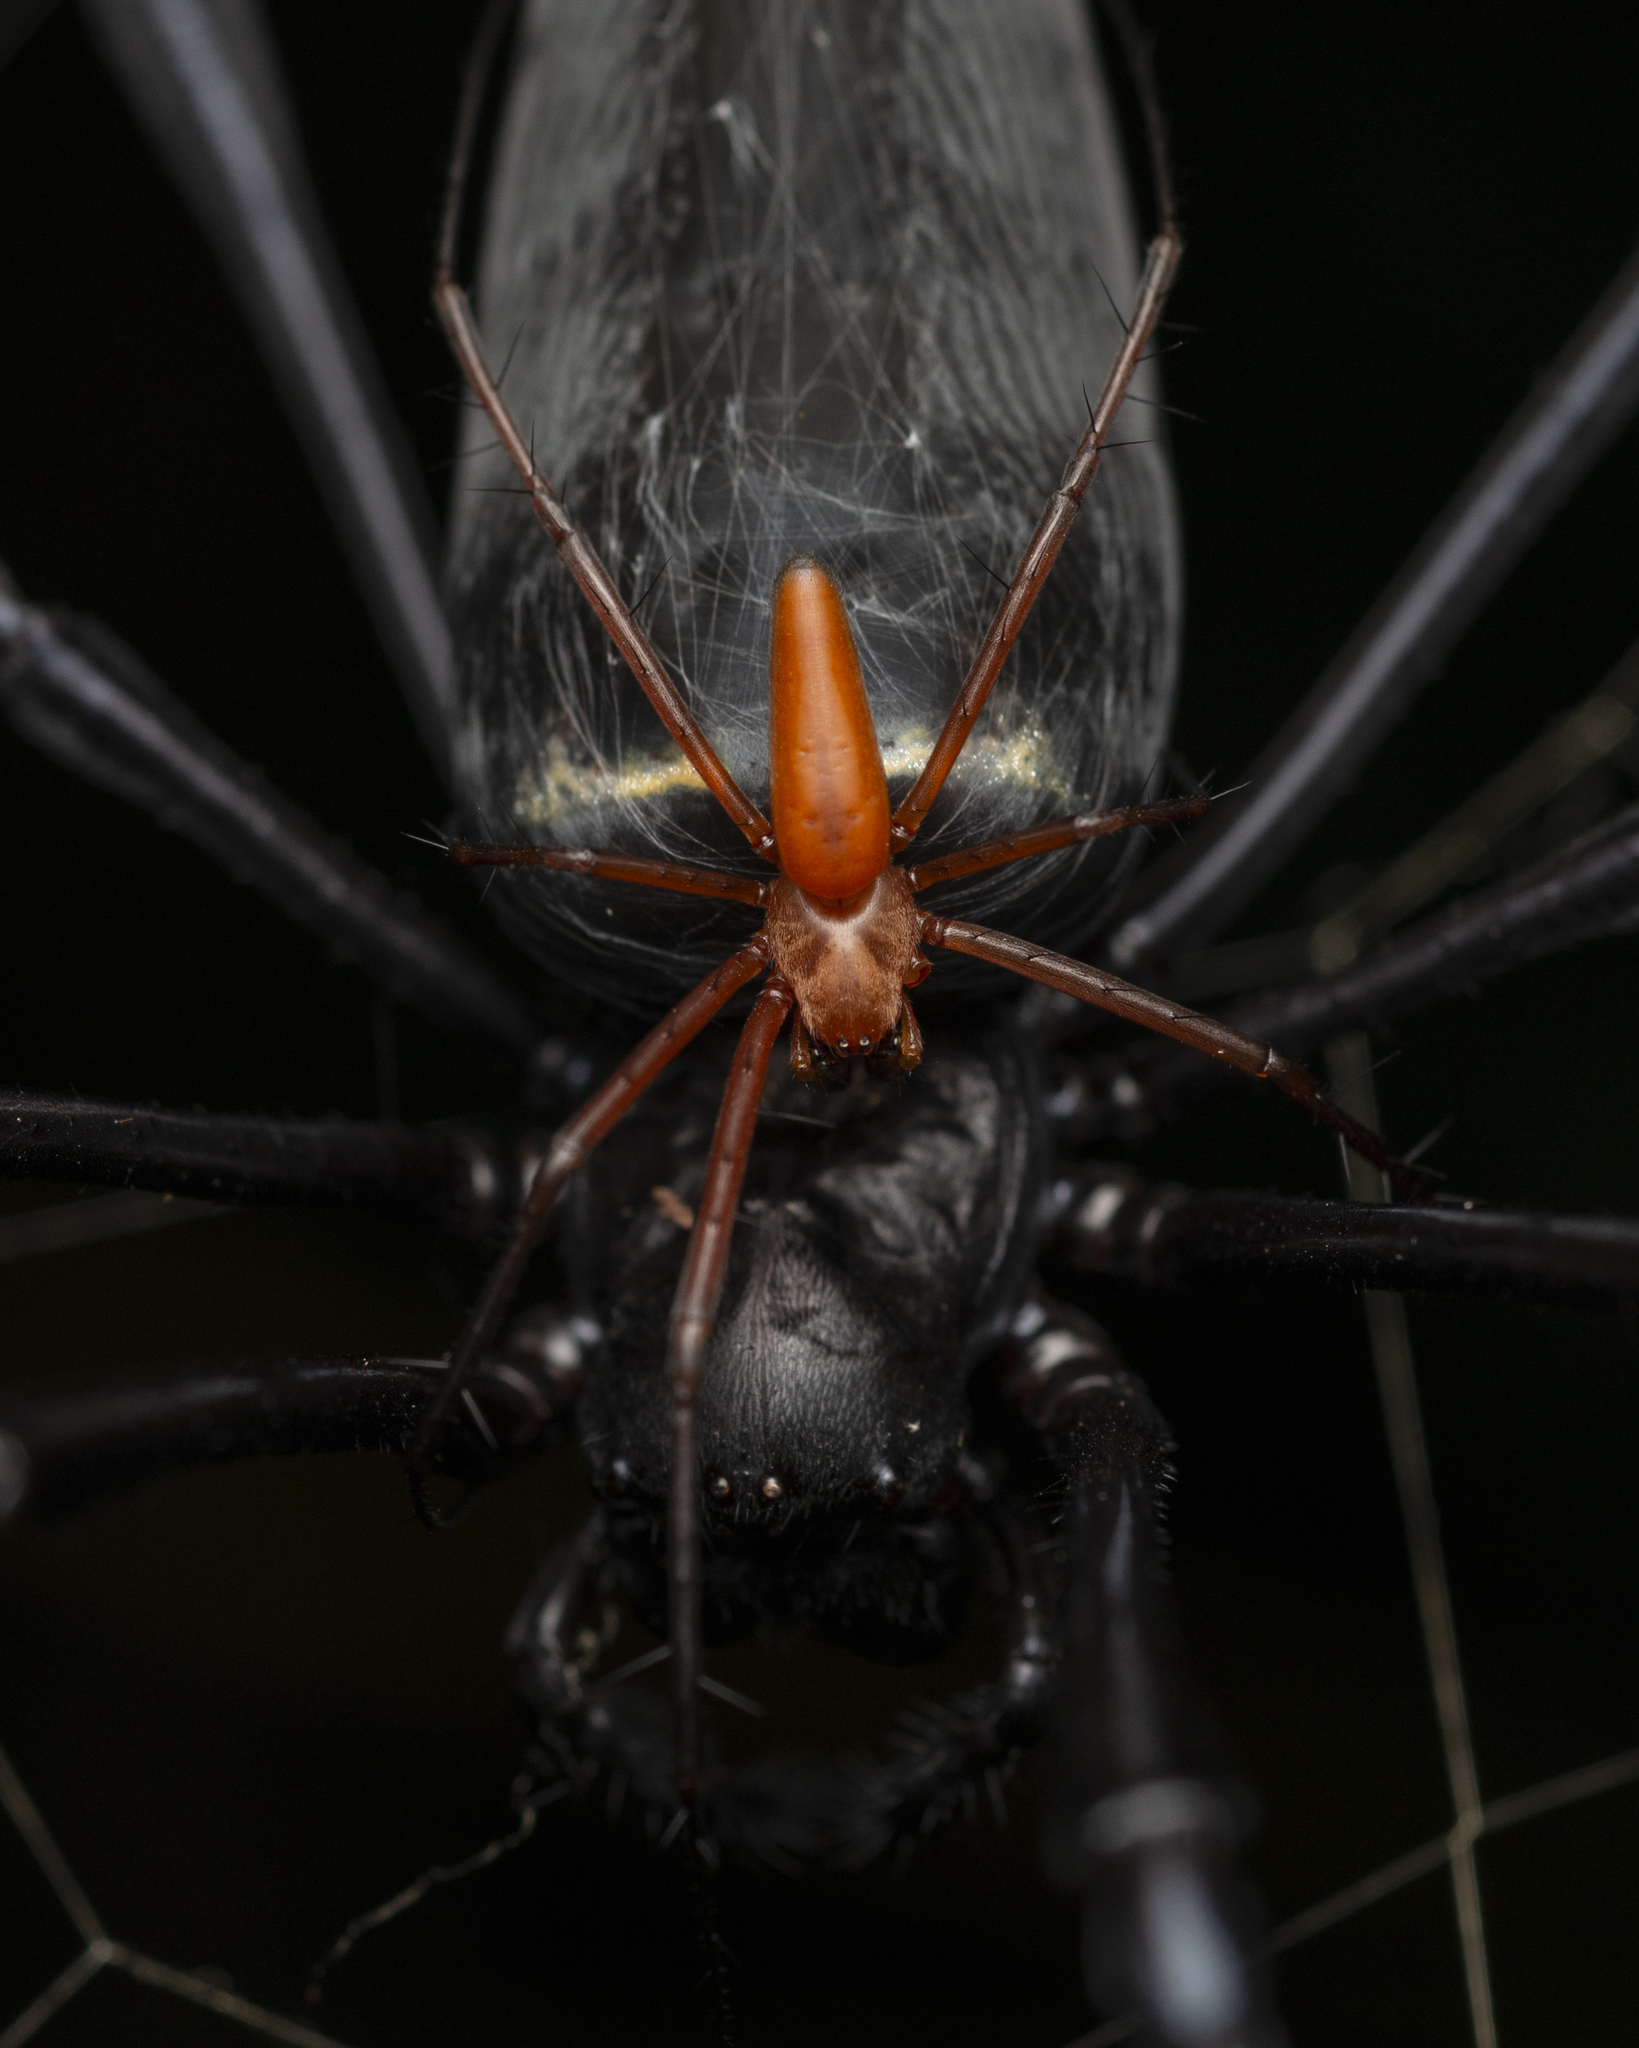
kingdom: Animalia
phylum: Arthropoda
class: Arachnida
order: Araneae
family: Araneidae
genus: Nephila
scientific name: Nephila pilipes
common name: Giant golden orb weaver
